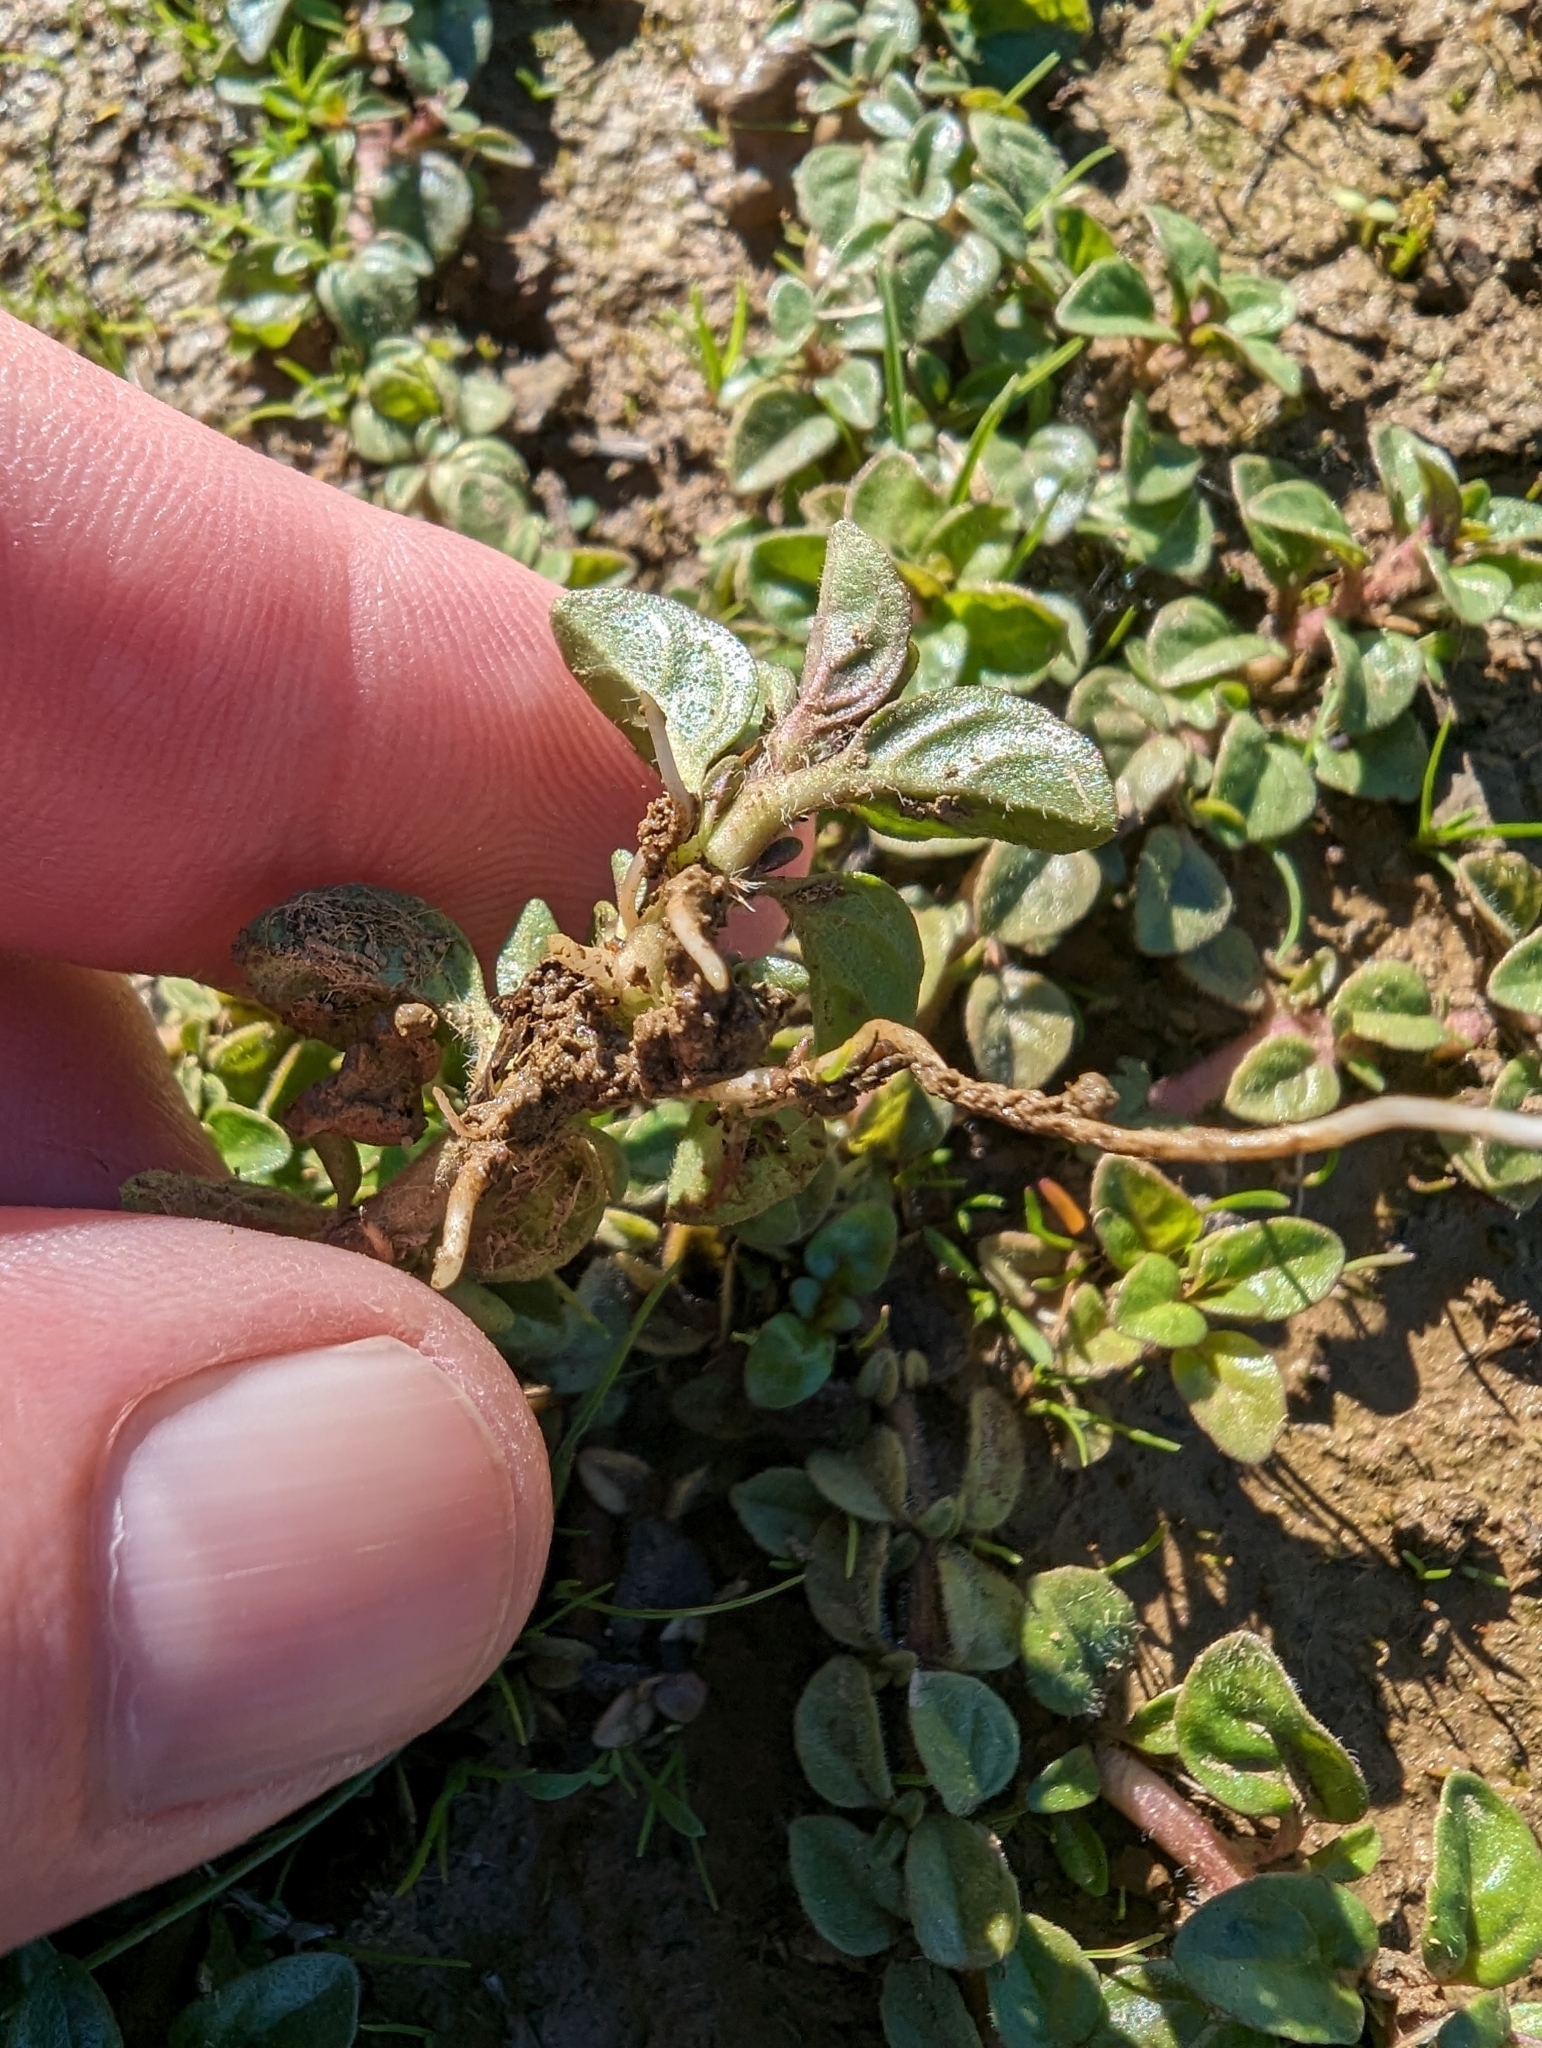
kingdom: Plantae
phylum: Tracheophyta
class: Magnoliopsida
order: Caryophyllales
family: Amaranthaceae
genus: Amaranthus
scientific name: Amaranthus californicus
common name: California amaranth
